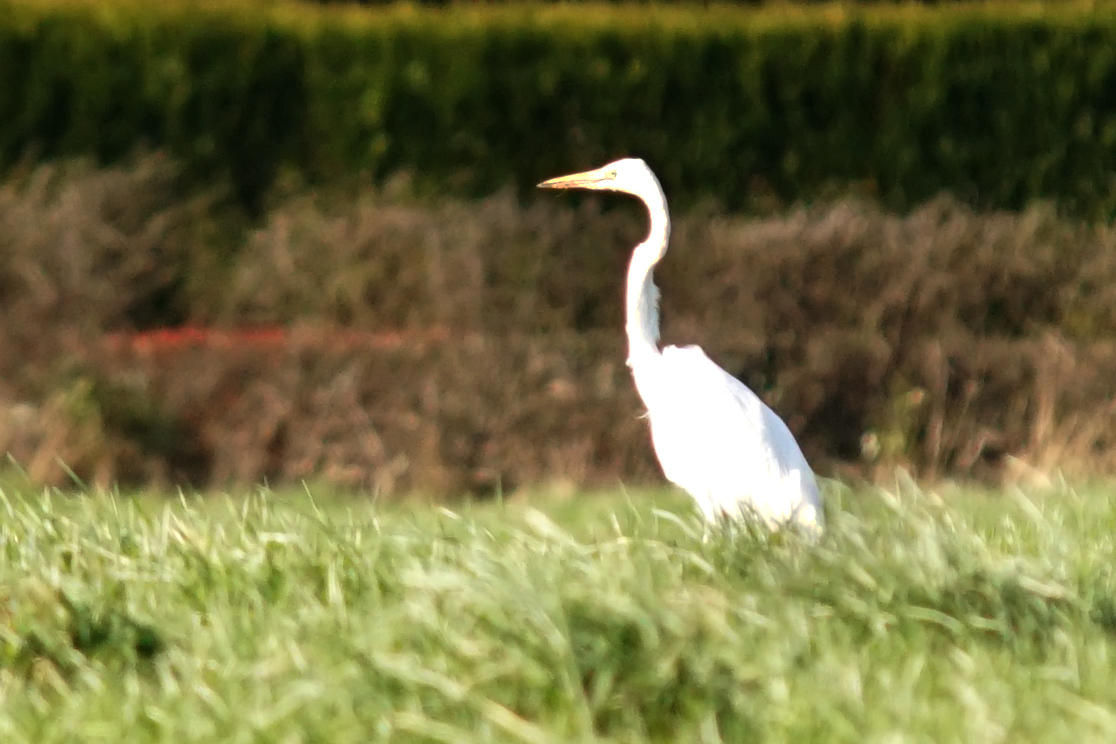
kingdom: Animalia
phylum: Chordata
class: Aves
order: Pelecaniformes
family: Ardeidae
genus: Ardea
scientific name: Ardea alba
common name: Great egret
